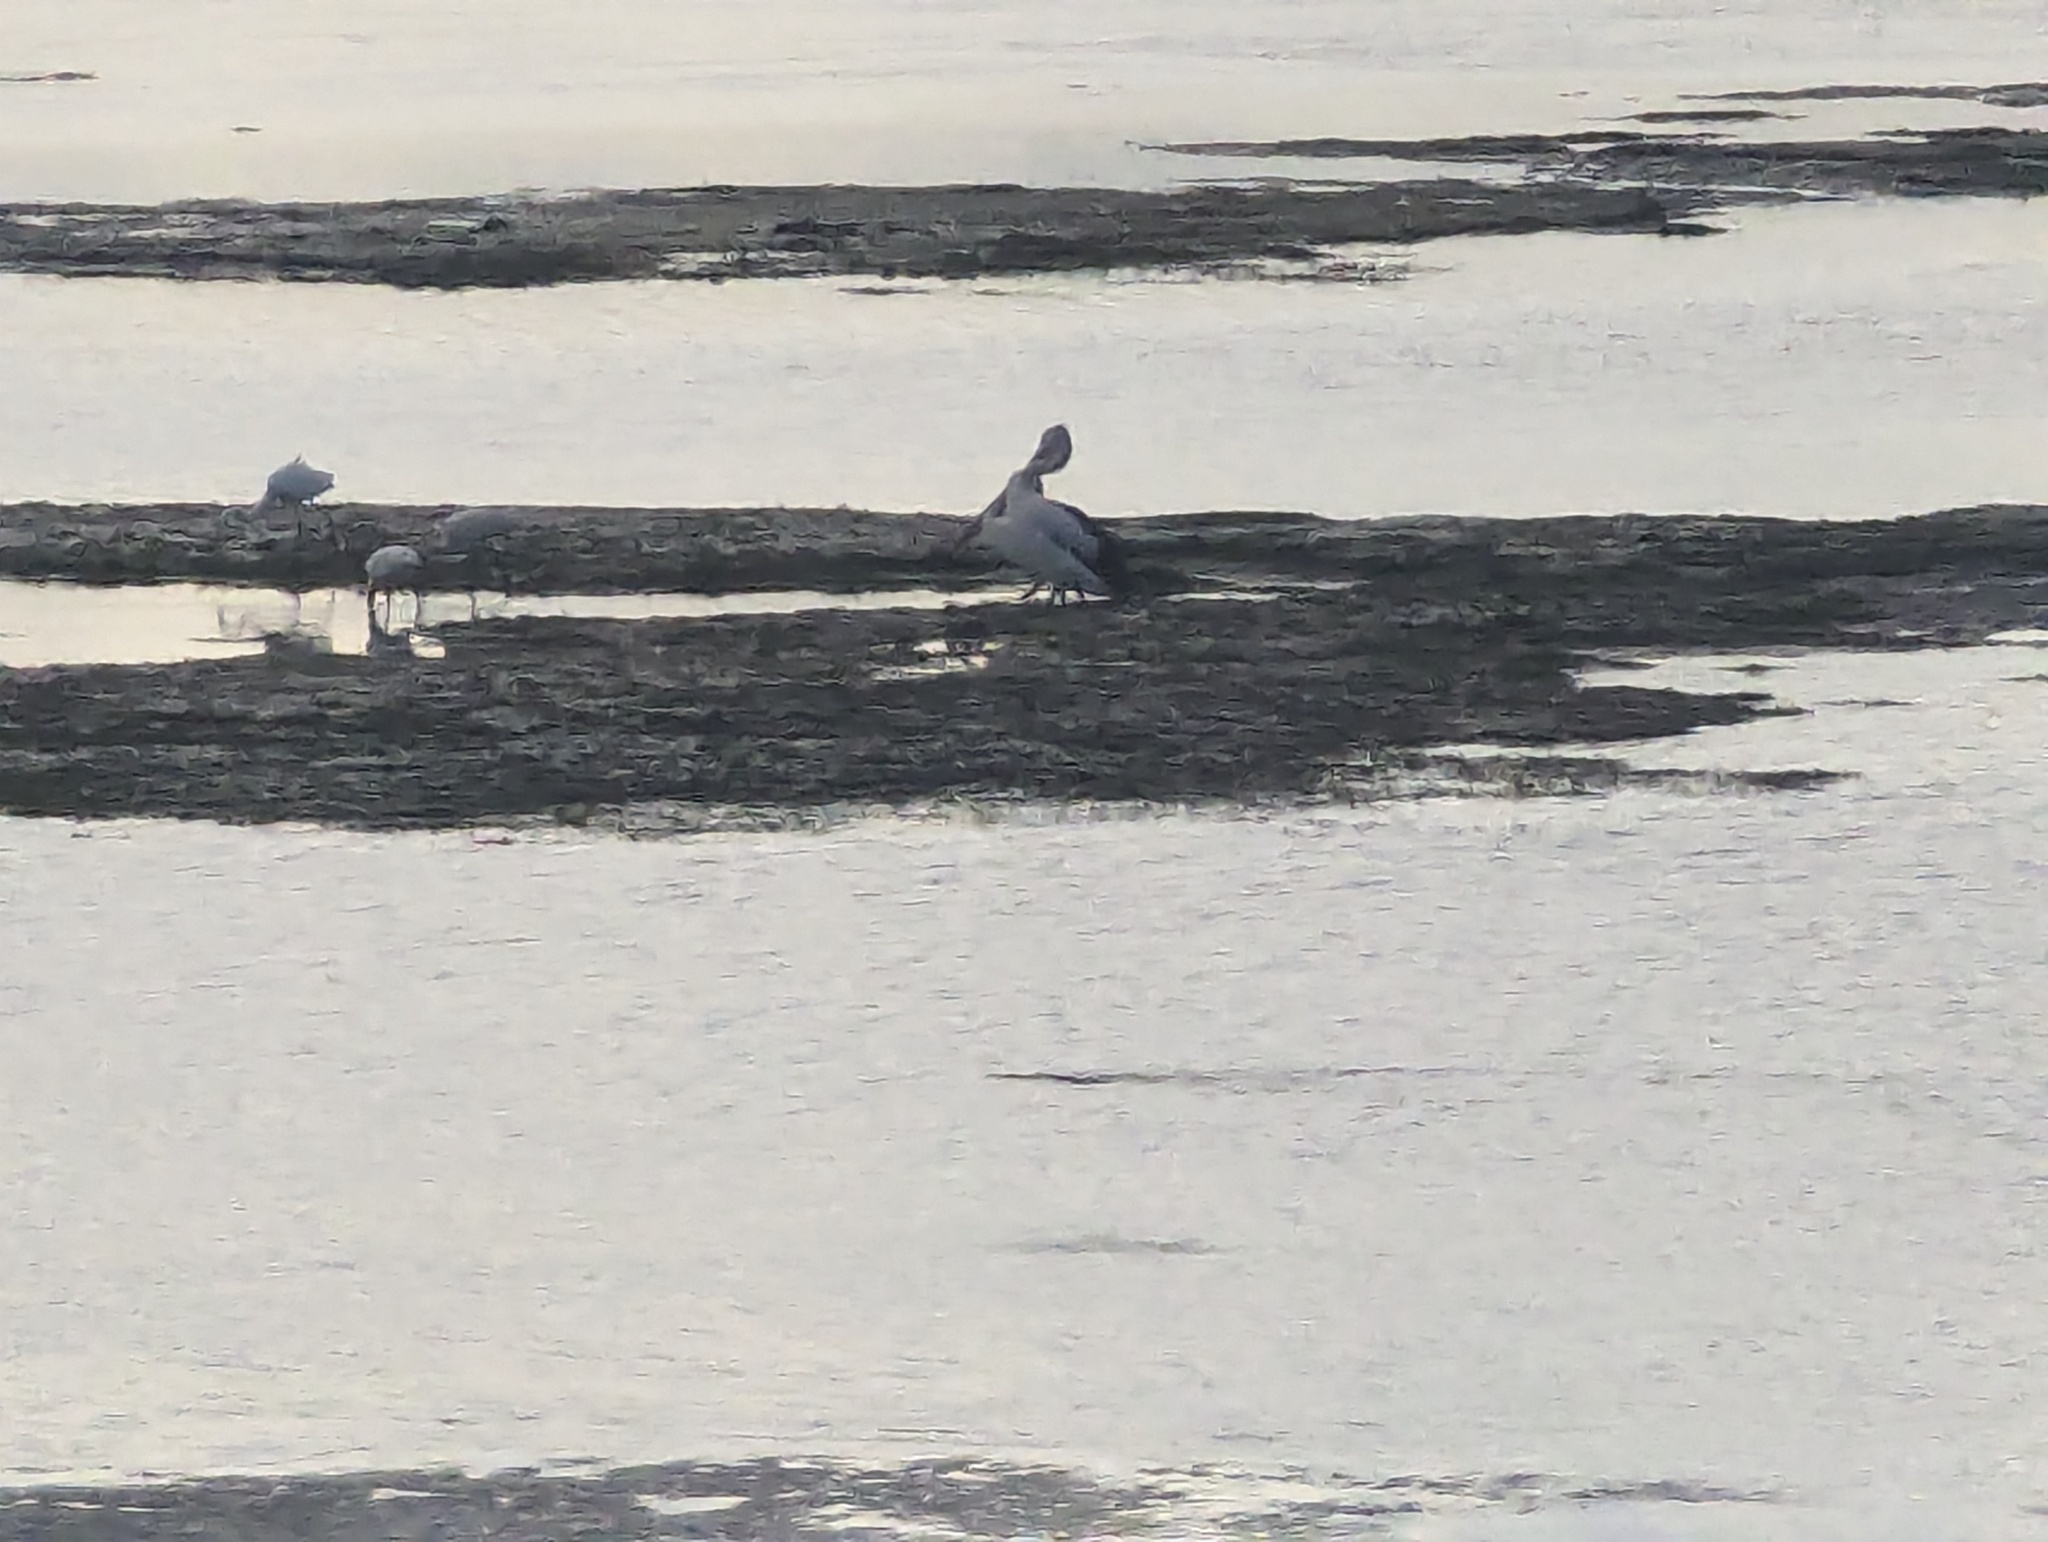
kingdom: Animalia
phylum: Chordata
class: Aves
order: Pelecaniformes
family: Pelecanidae
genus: Pelecanus
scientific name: Pelecanus conspicillatus
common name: Australian pelican
